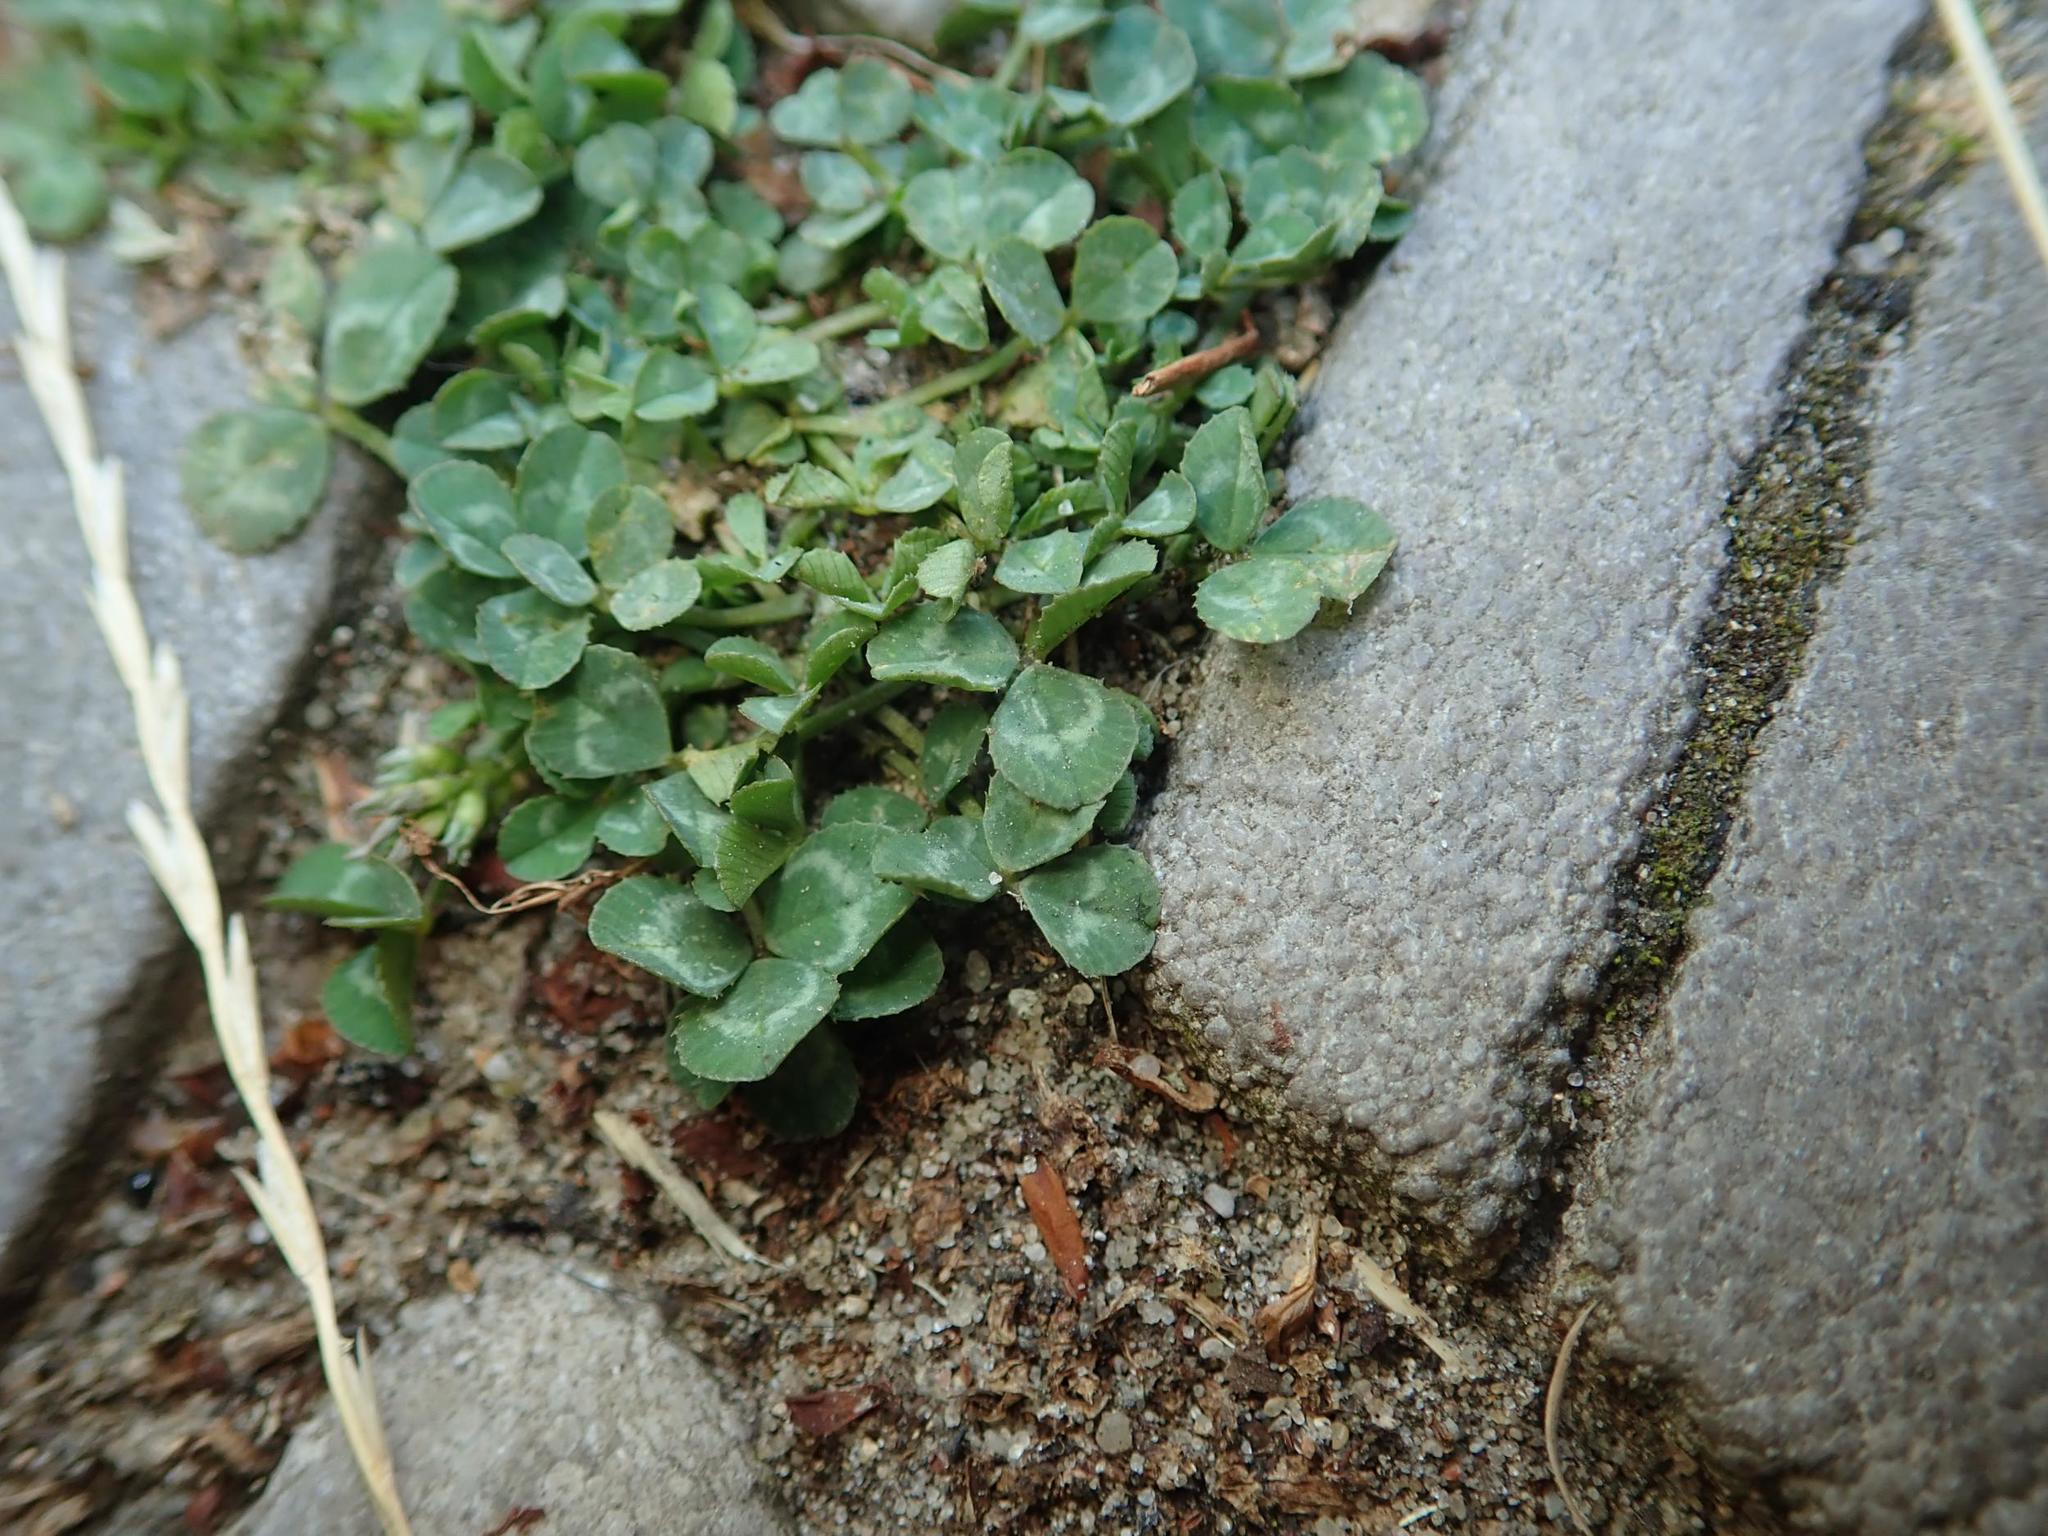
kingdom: Plantae
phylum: Tracheophyta
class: Magnoliopsida
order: Fabales
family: Fabaceae
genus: Trifolium
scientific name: Trifolium repens
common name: White clover
